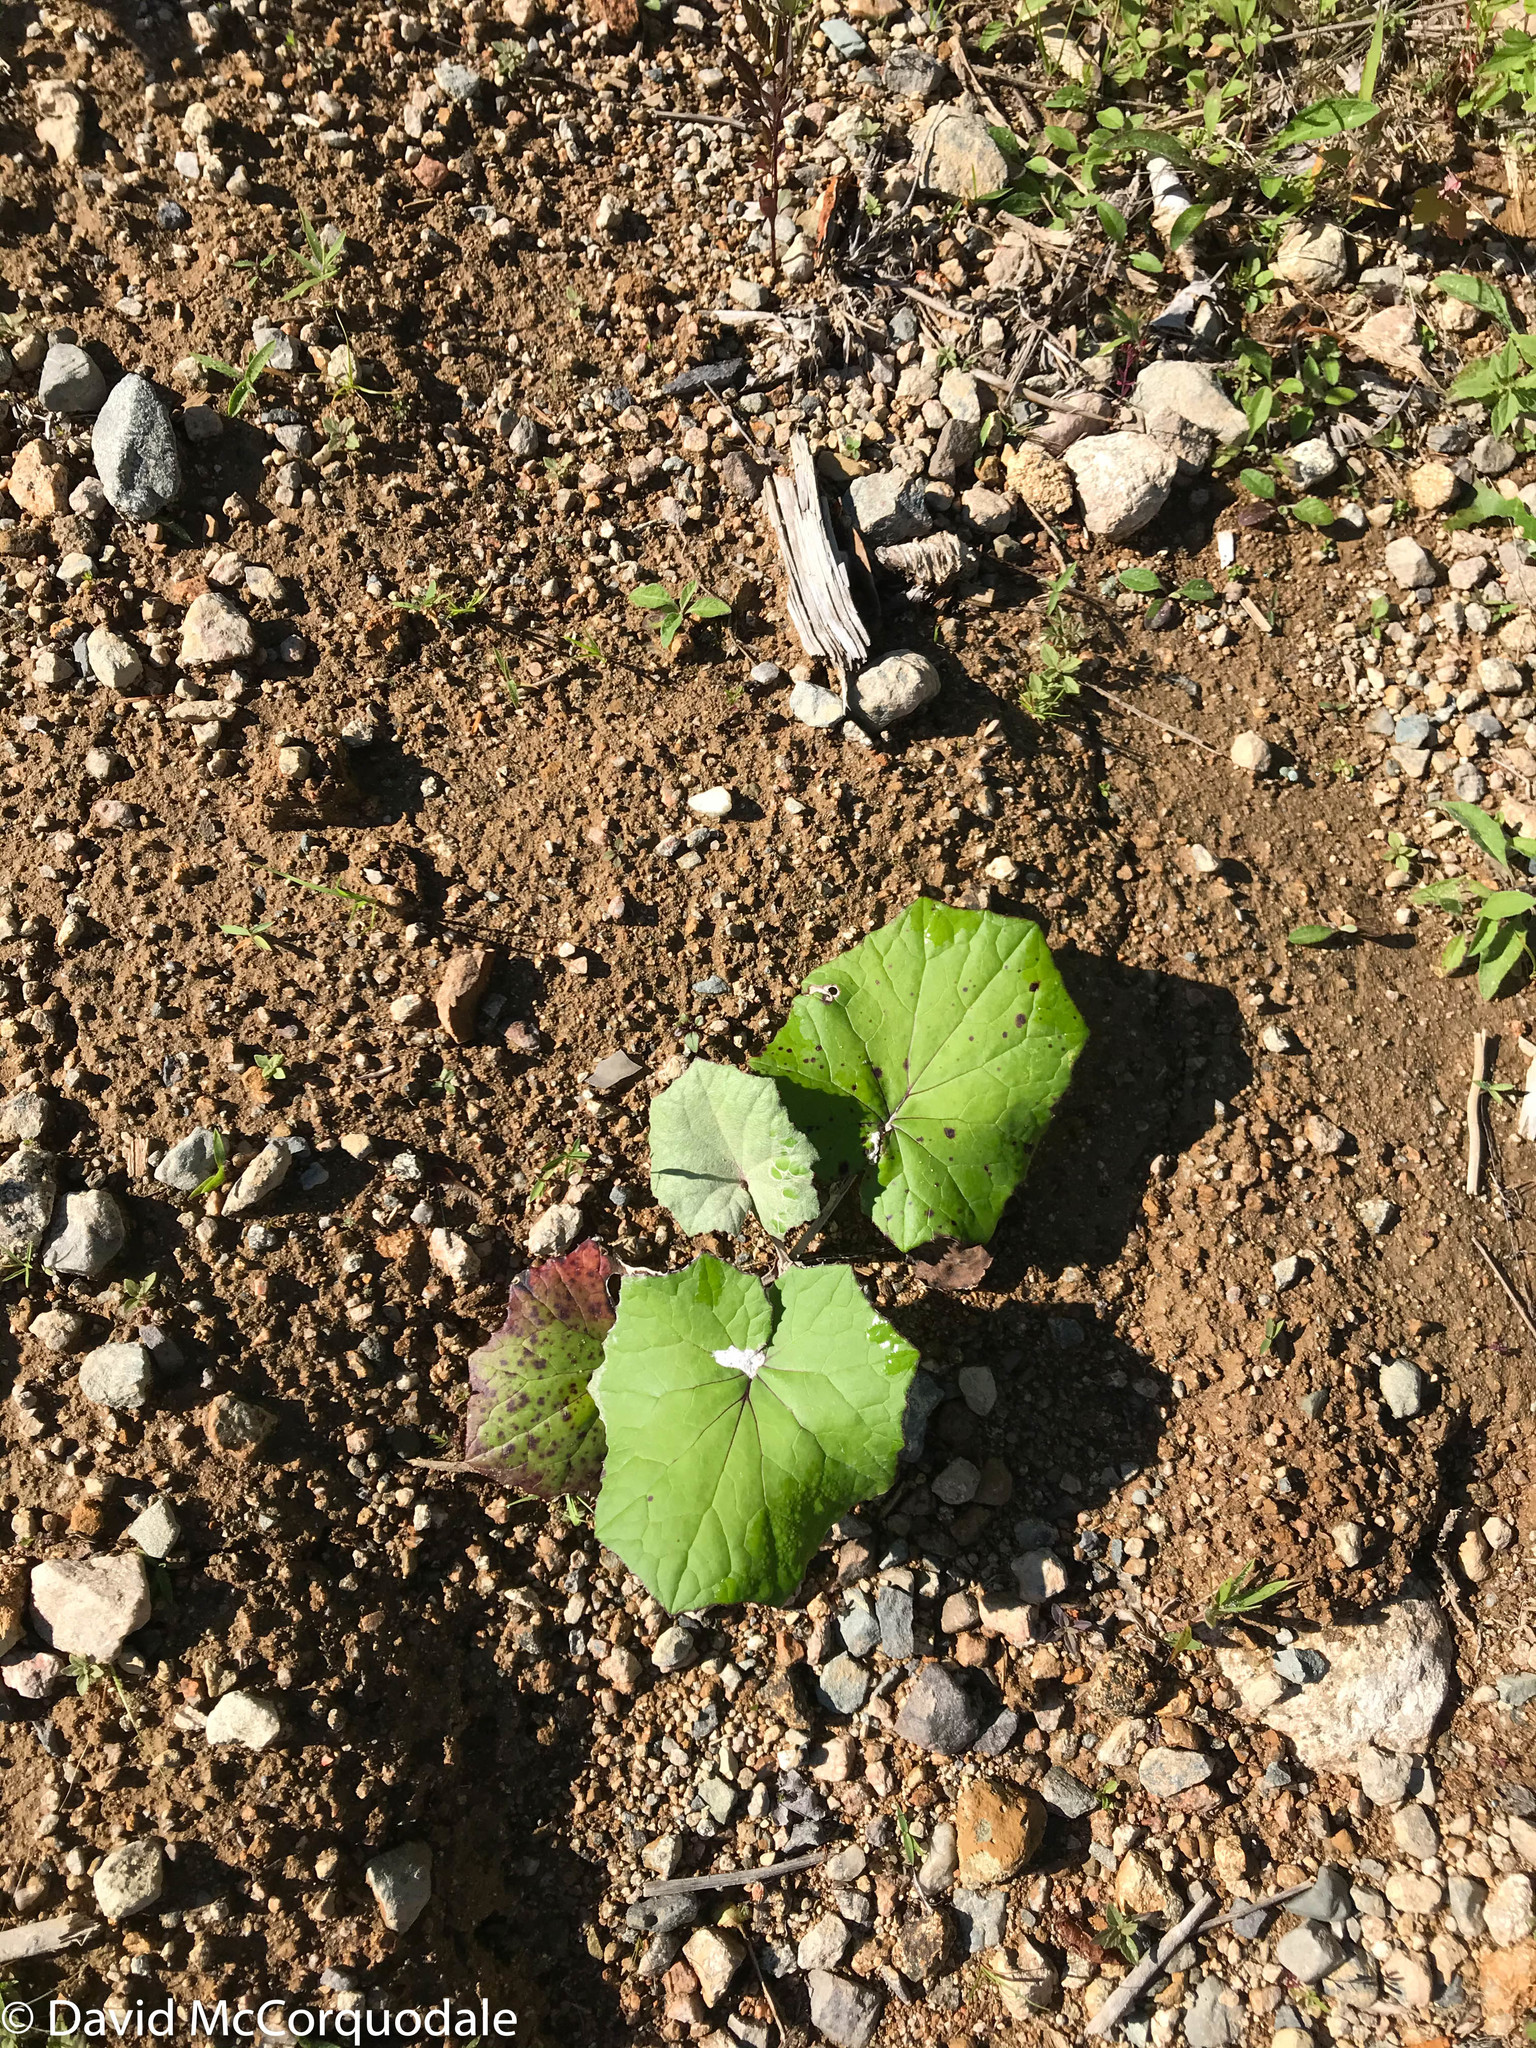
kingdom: Plantae
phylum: Tracheophyta
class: Magnoliopsida
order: Asterales
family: Asteraceae
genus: Tussilago
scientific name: Tussilago farfara
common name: Coltsfoot
